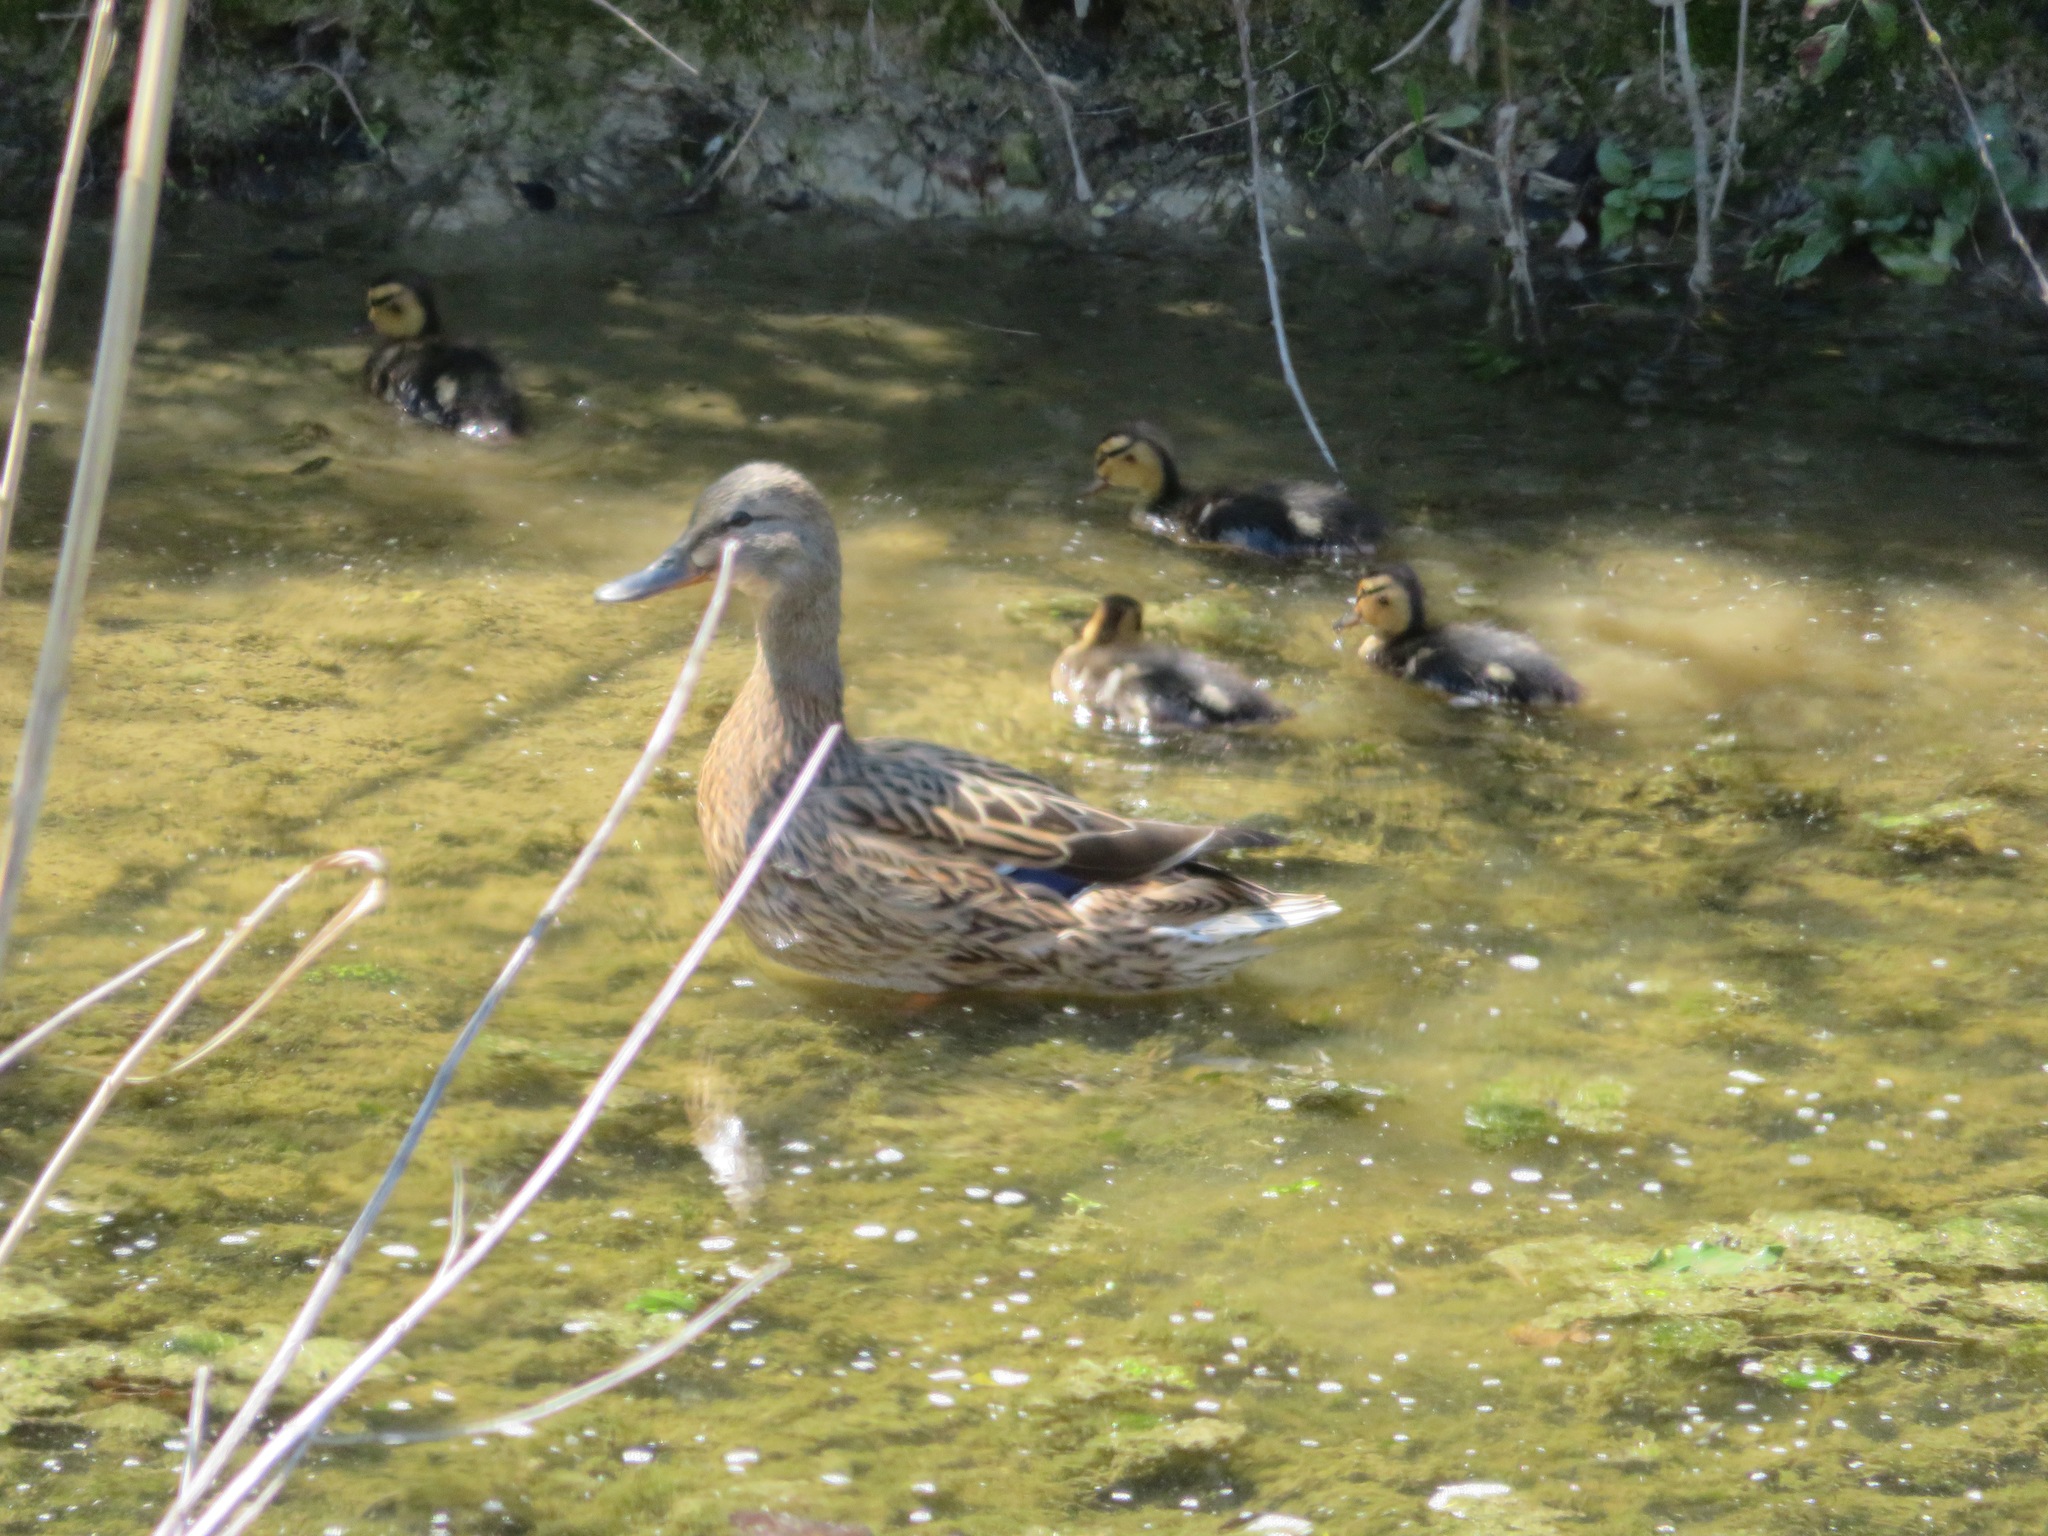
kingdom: Animalia
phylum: Chordata
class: Aves
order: Anseriformes
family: Anatidae
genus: Anas
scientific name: Anas platyrhynchos
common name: Mallard
